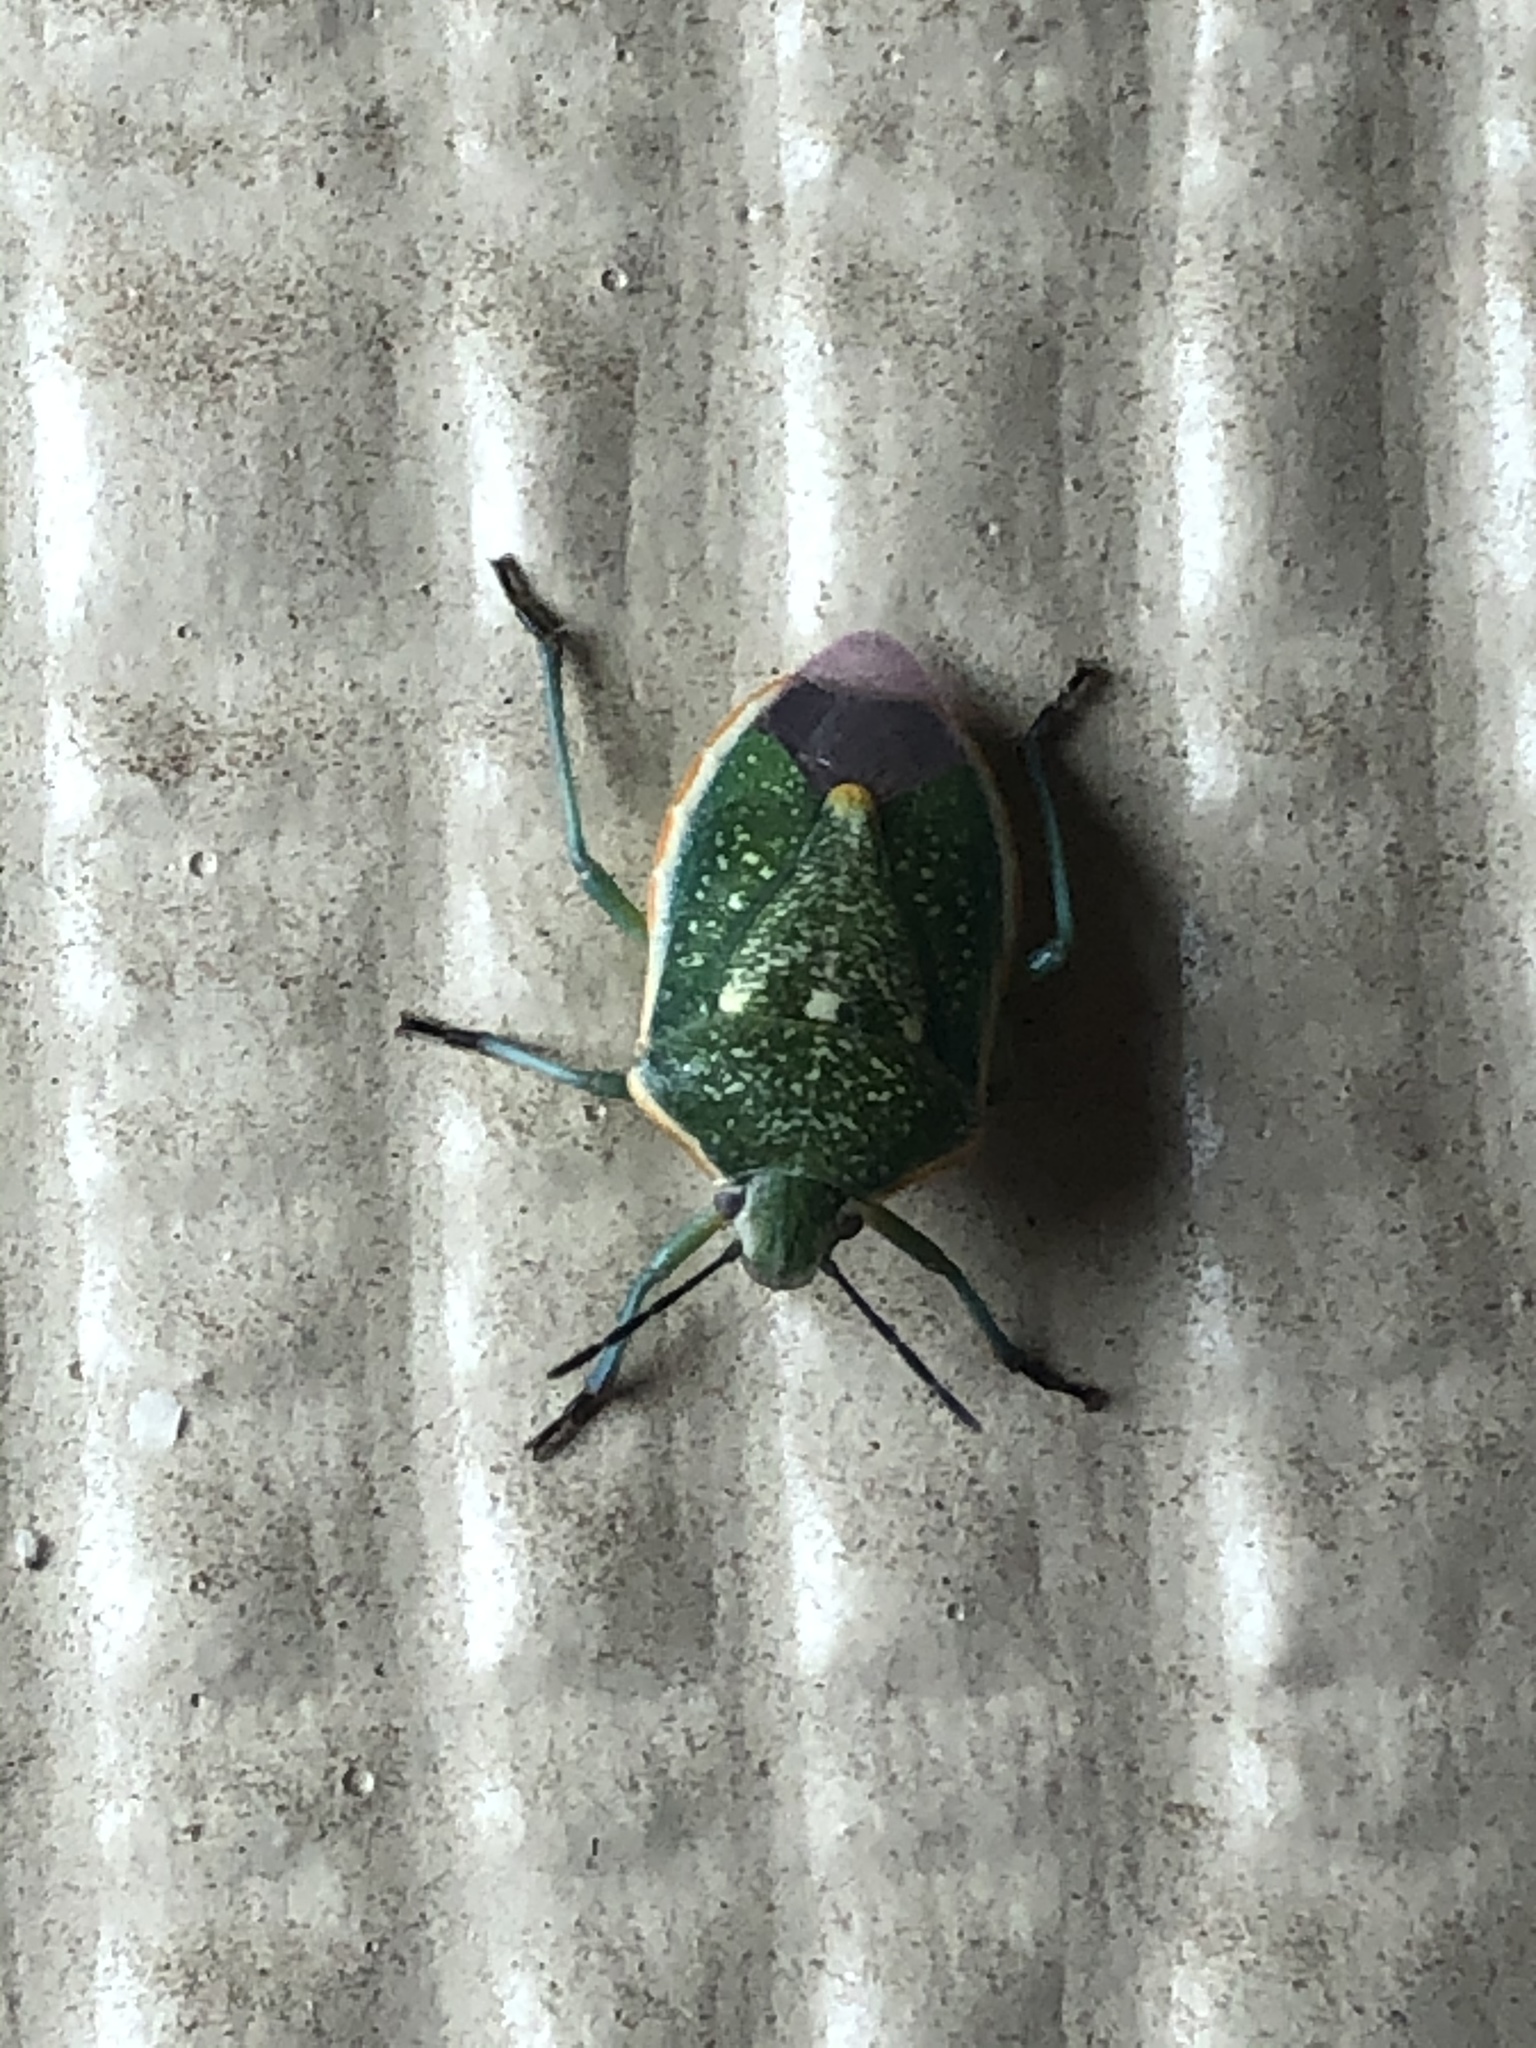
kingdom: Animalia
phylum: Arthropoda
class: Insecta
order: Hemiptera
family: Pentatomidae
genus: Chlorochroa
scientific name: Chlorochroa sayi
